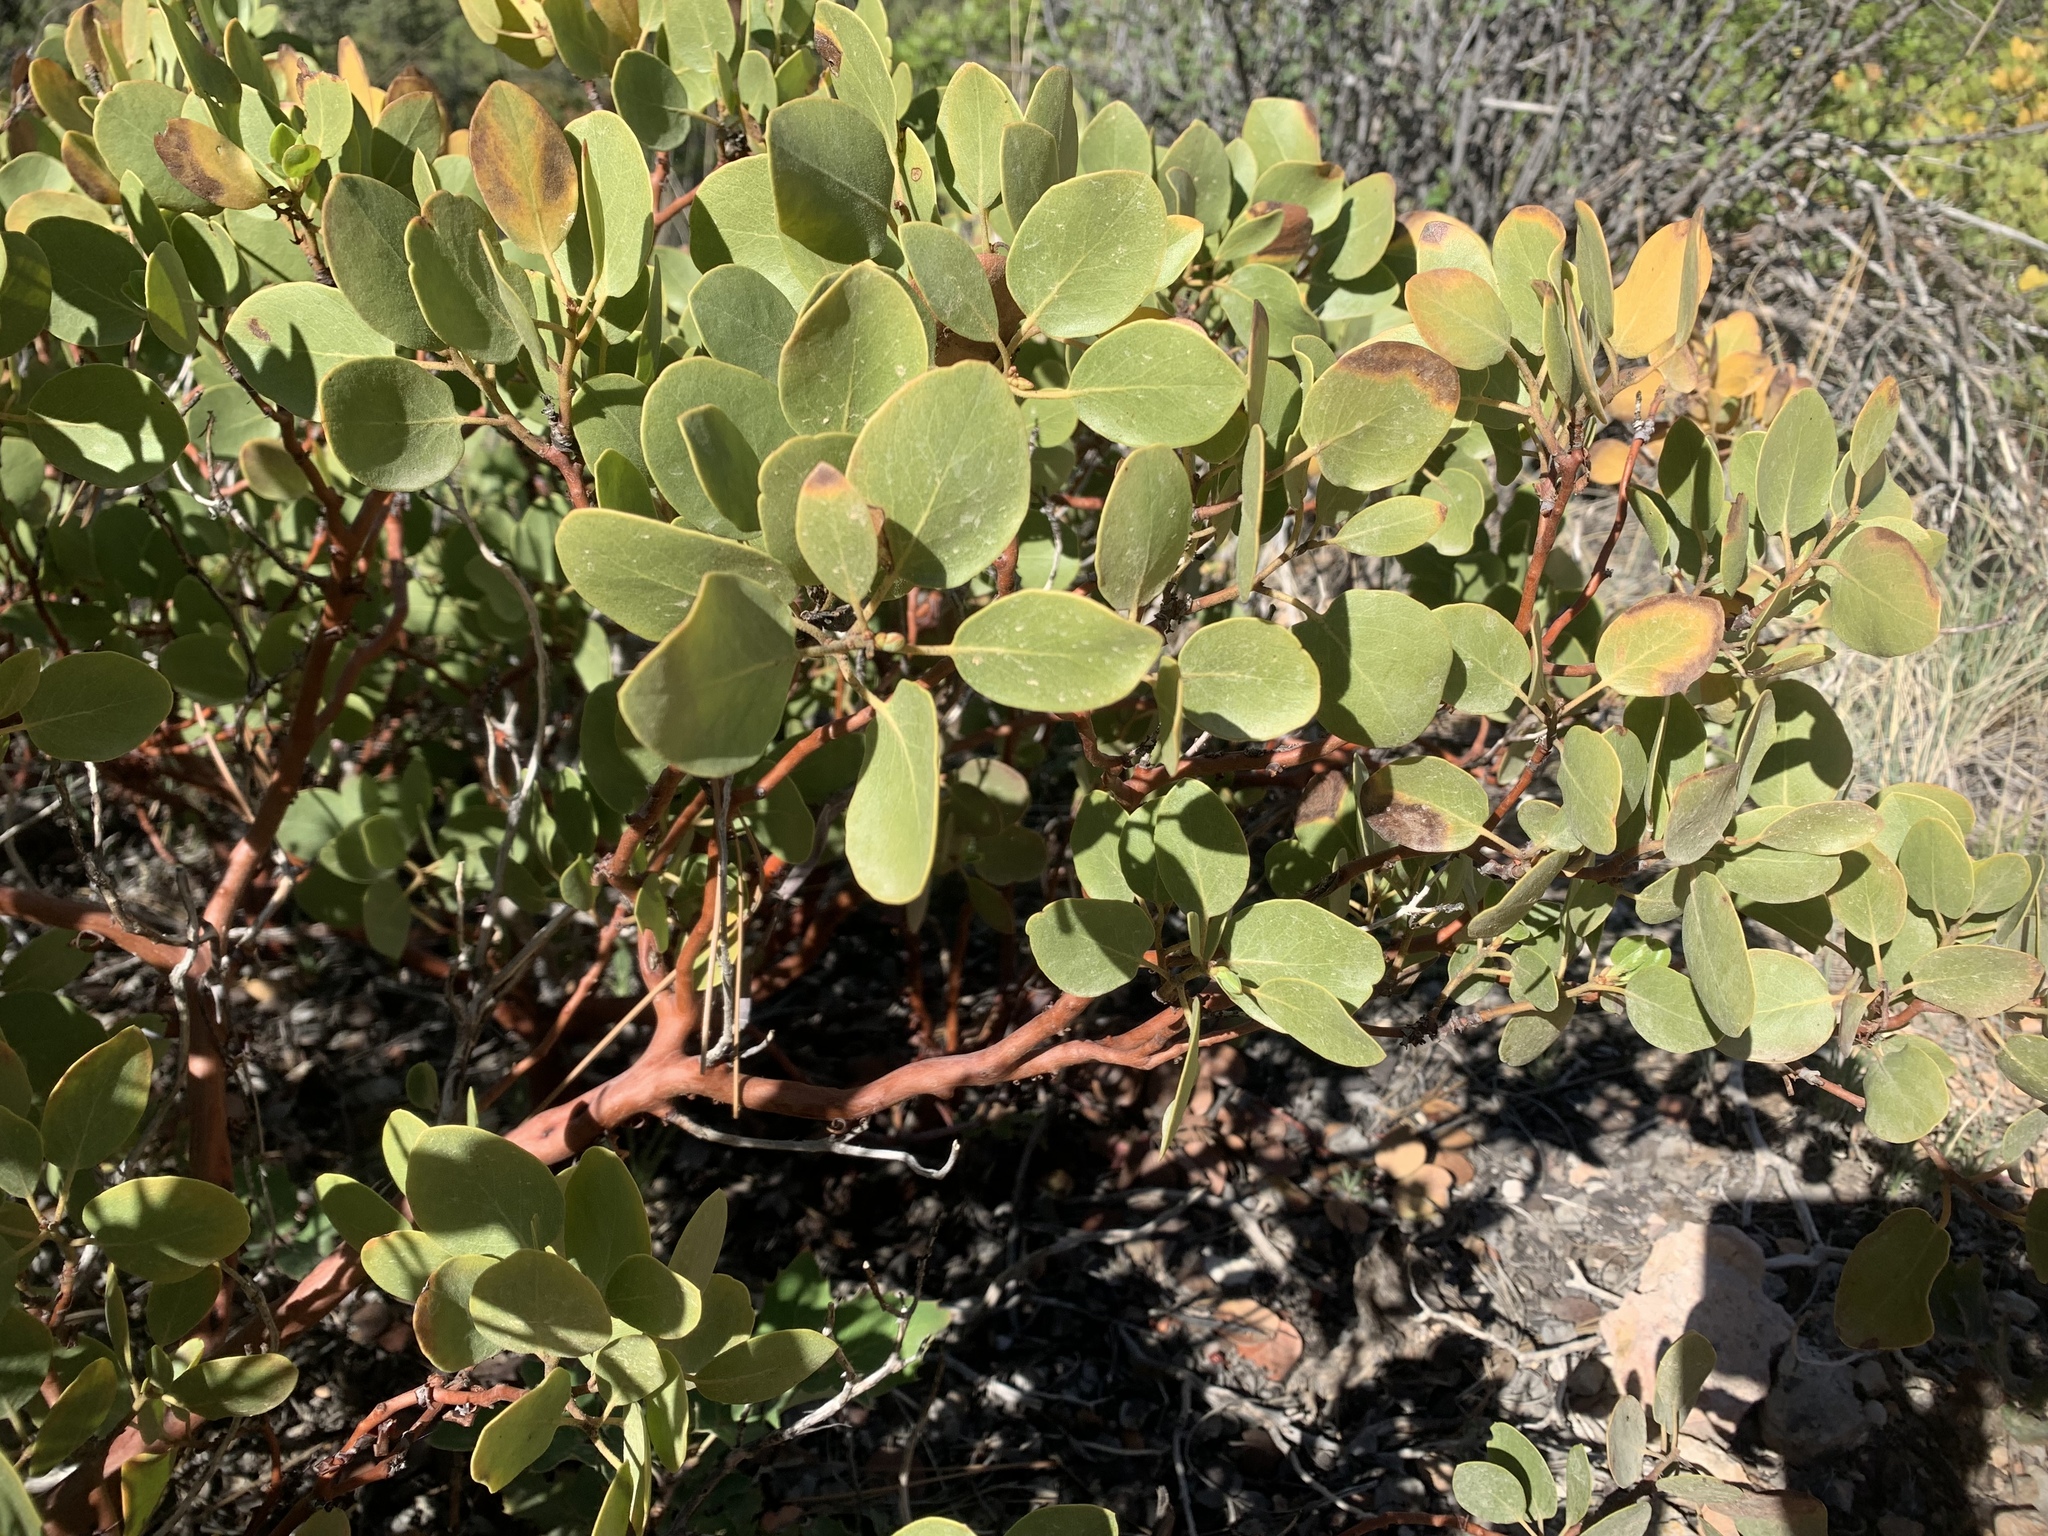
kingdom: Plantae
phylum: Tracheophyta
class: Magnoliopsida
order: Ericales
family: Ericaceae
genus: Arctostaphylos
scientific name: Arctostaphylos patula
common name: Green-leaf manzanita
